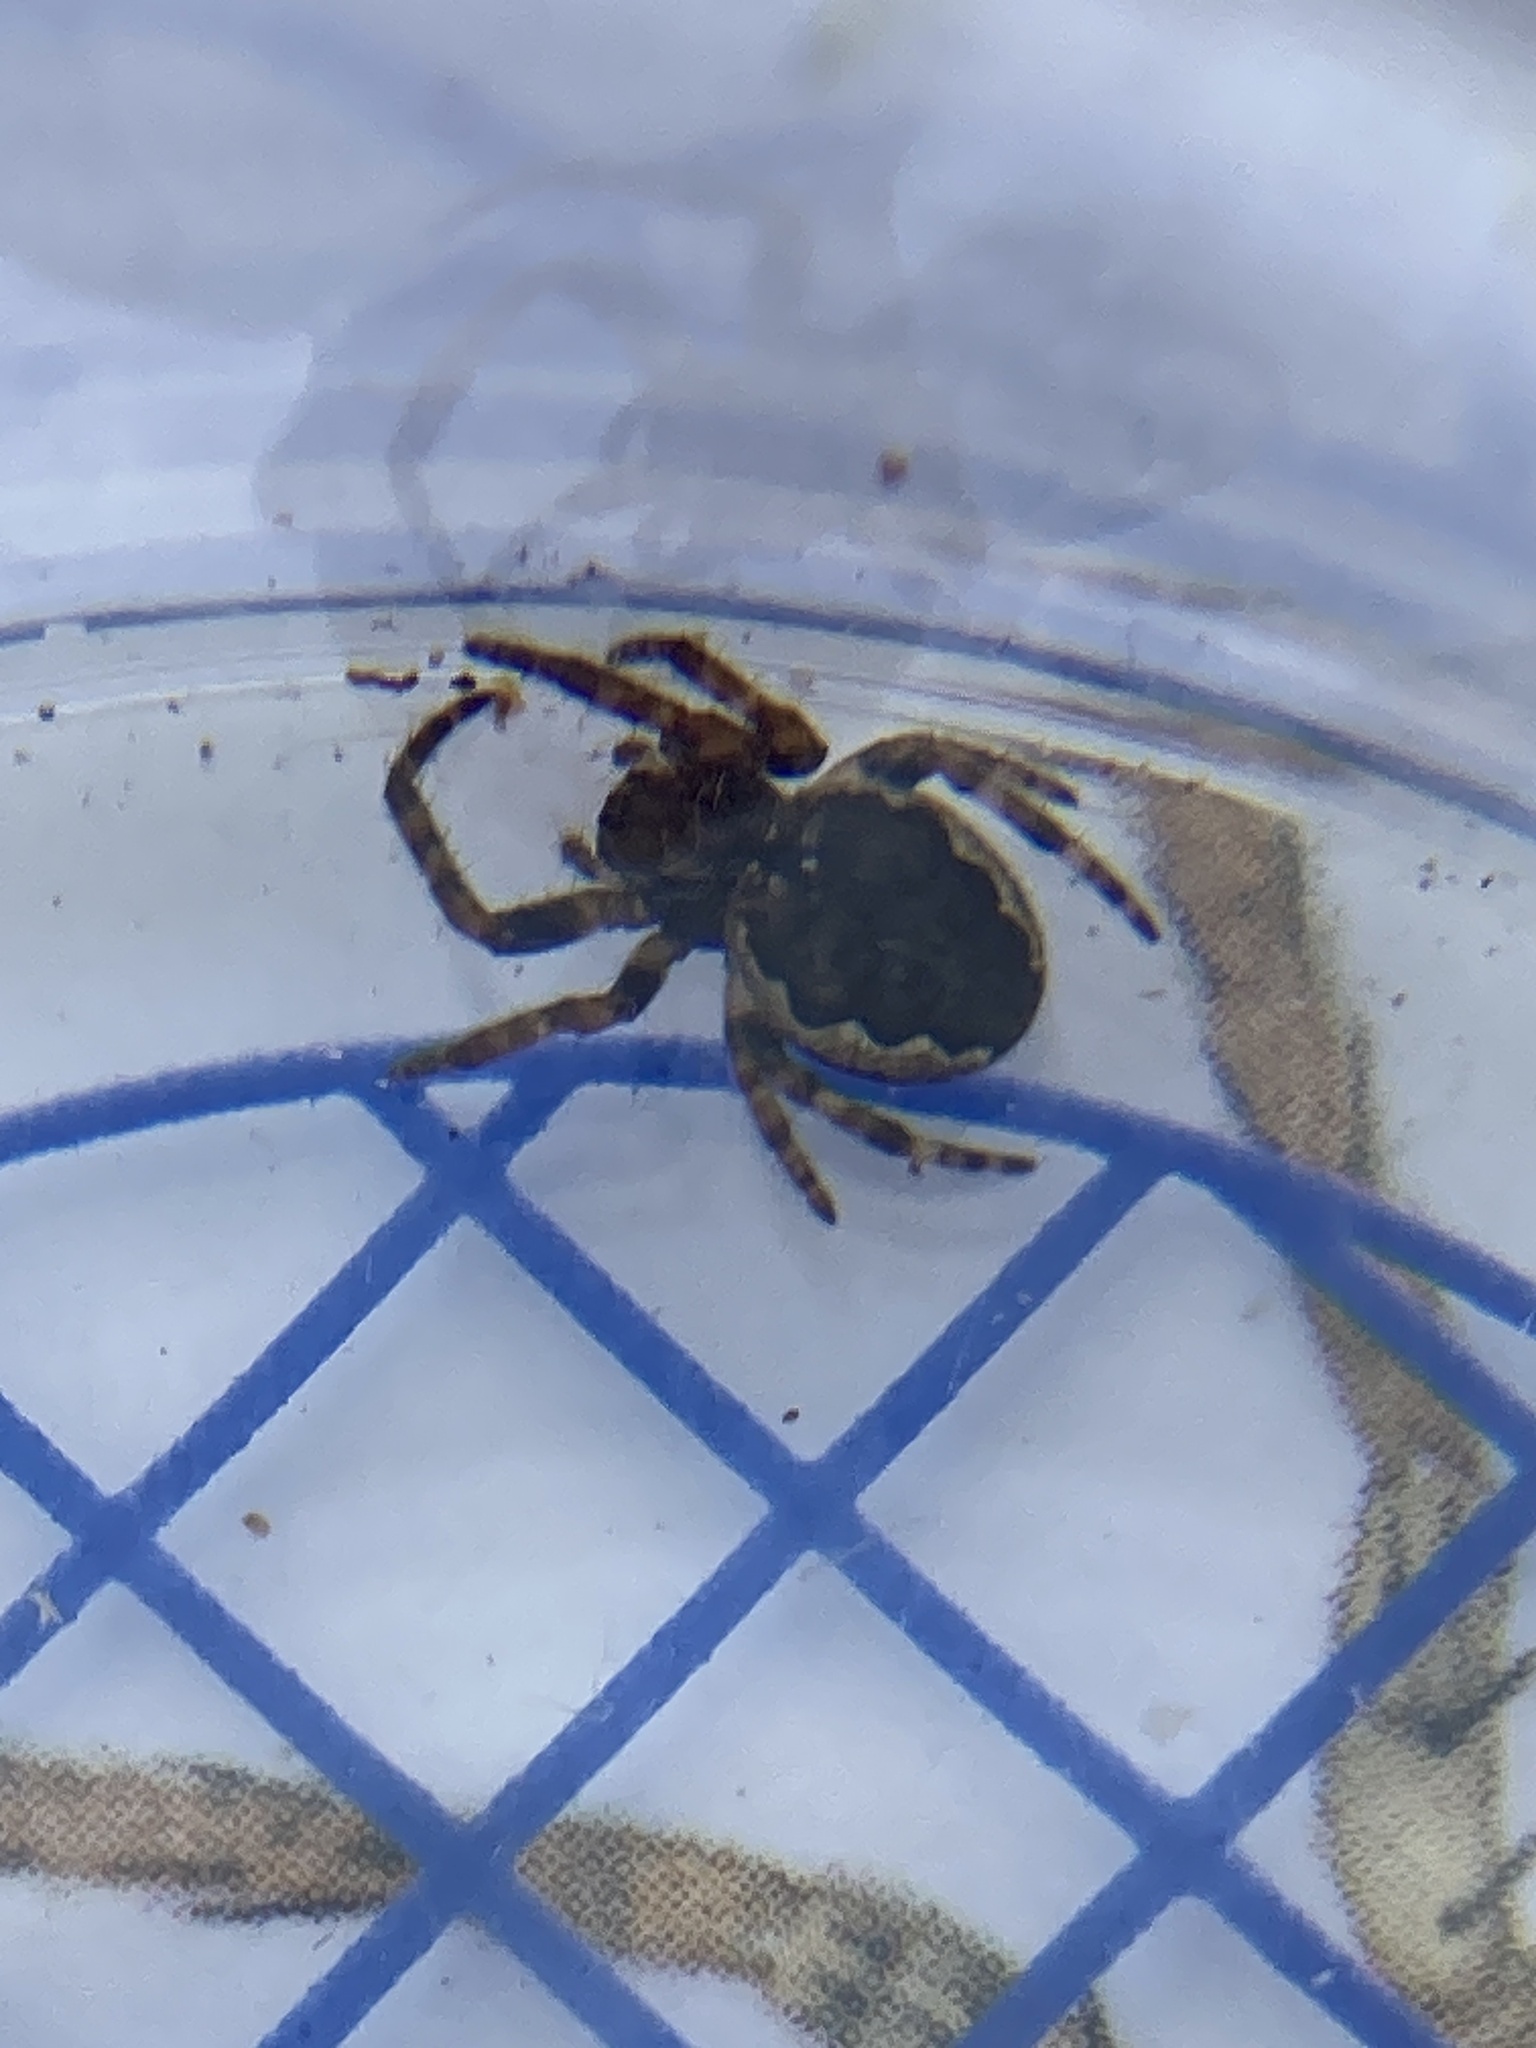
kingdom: Animalia
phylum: Arthropoda
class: Arachnida
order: Araneae
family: Araneidae
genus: Nuctenea
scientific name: Nuctenea umbratica
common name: Toad spider
